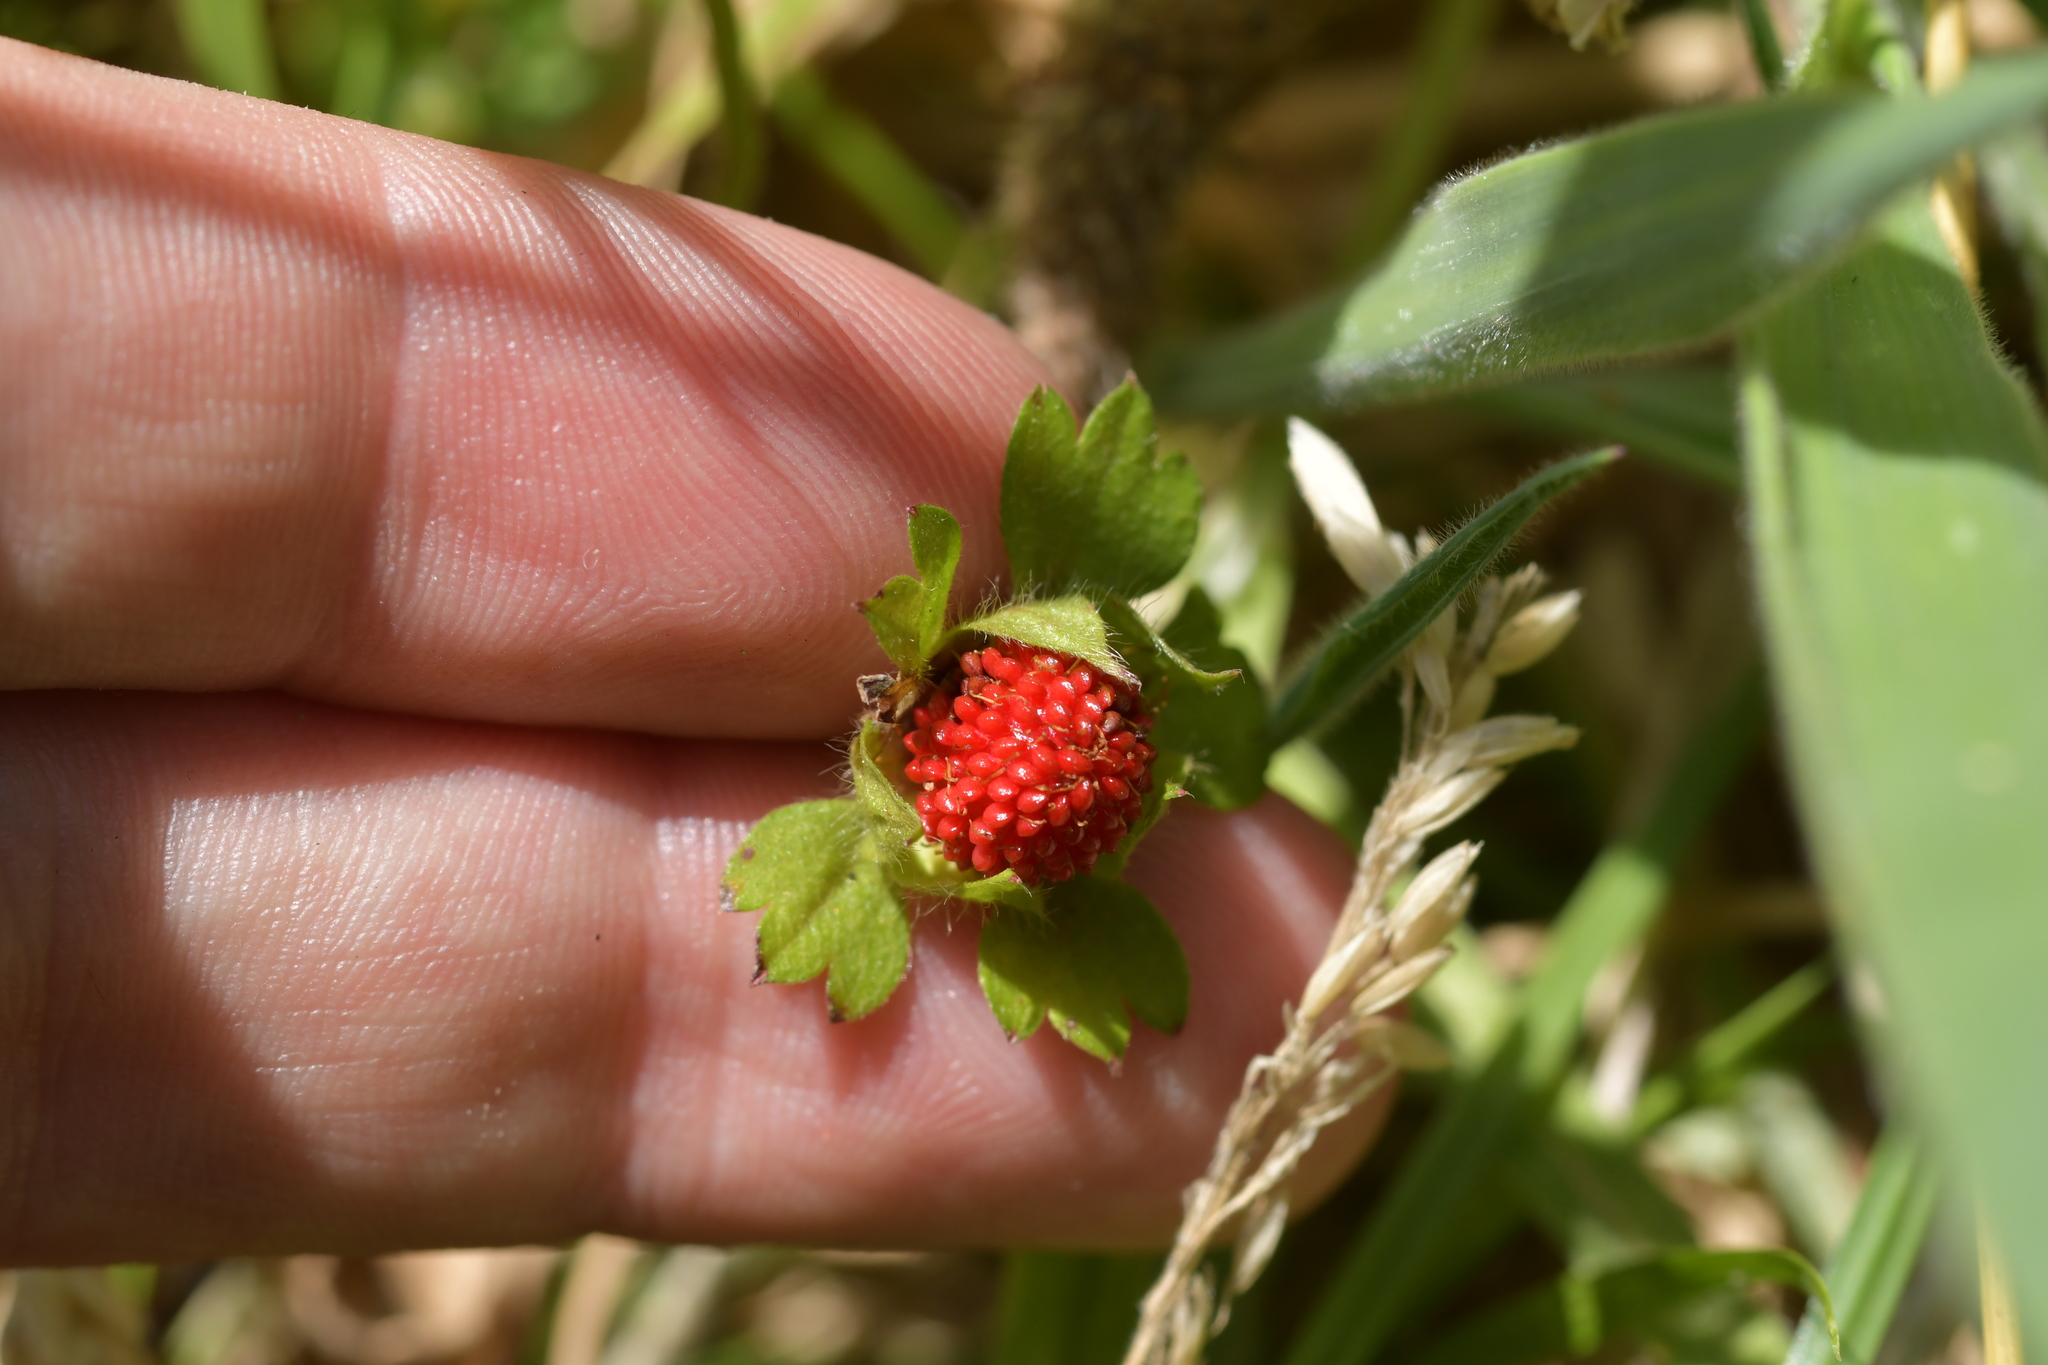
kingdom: Plantae
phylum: Tracheophyta
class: Magnoliopsida
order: Rosales
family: Rosaceae
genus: Potentilla
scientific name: Potentilla indica
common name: Yellow-flowered strawberry
